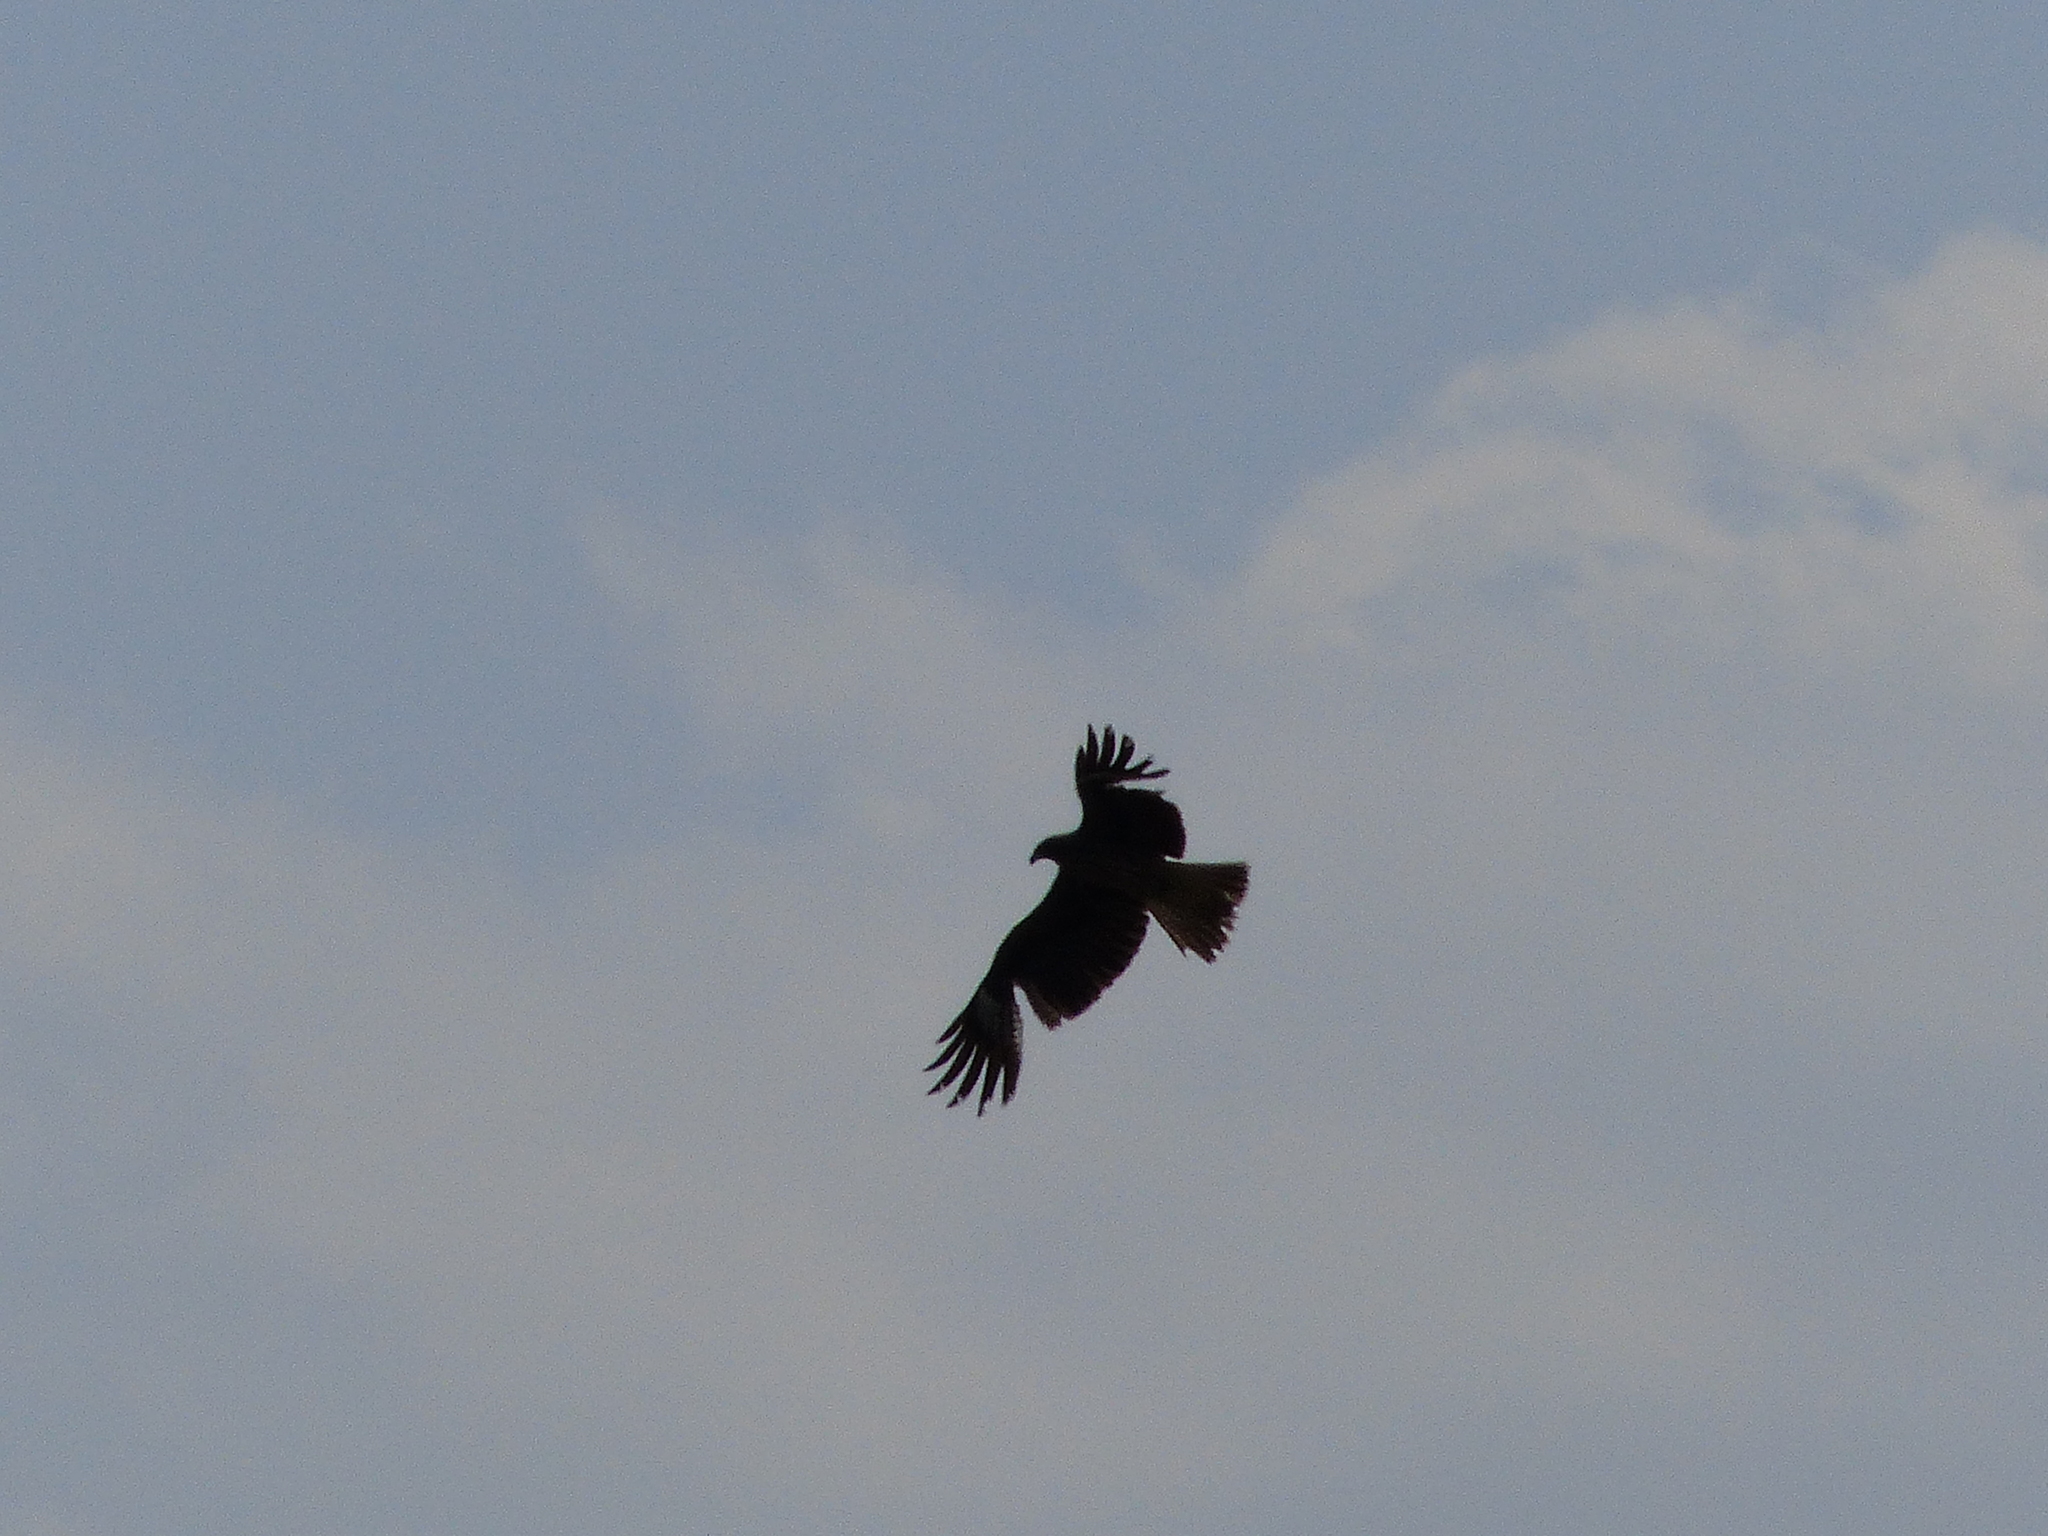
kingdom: Animalia
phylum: Chordata
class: Aves
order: Accipitriformes
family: Accipitridae
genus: Milvus
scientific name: Milvus migrans
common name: Black kite
